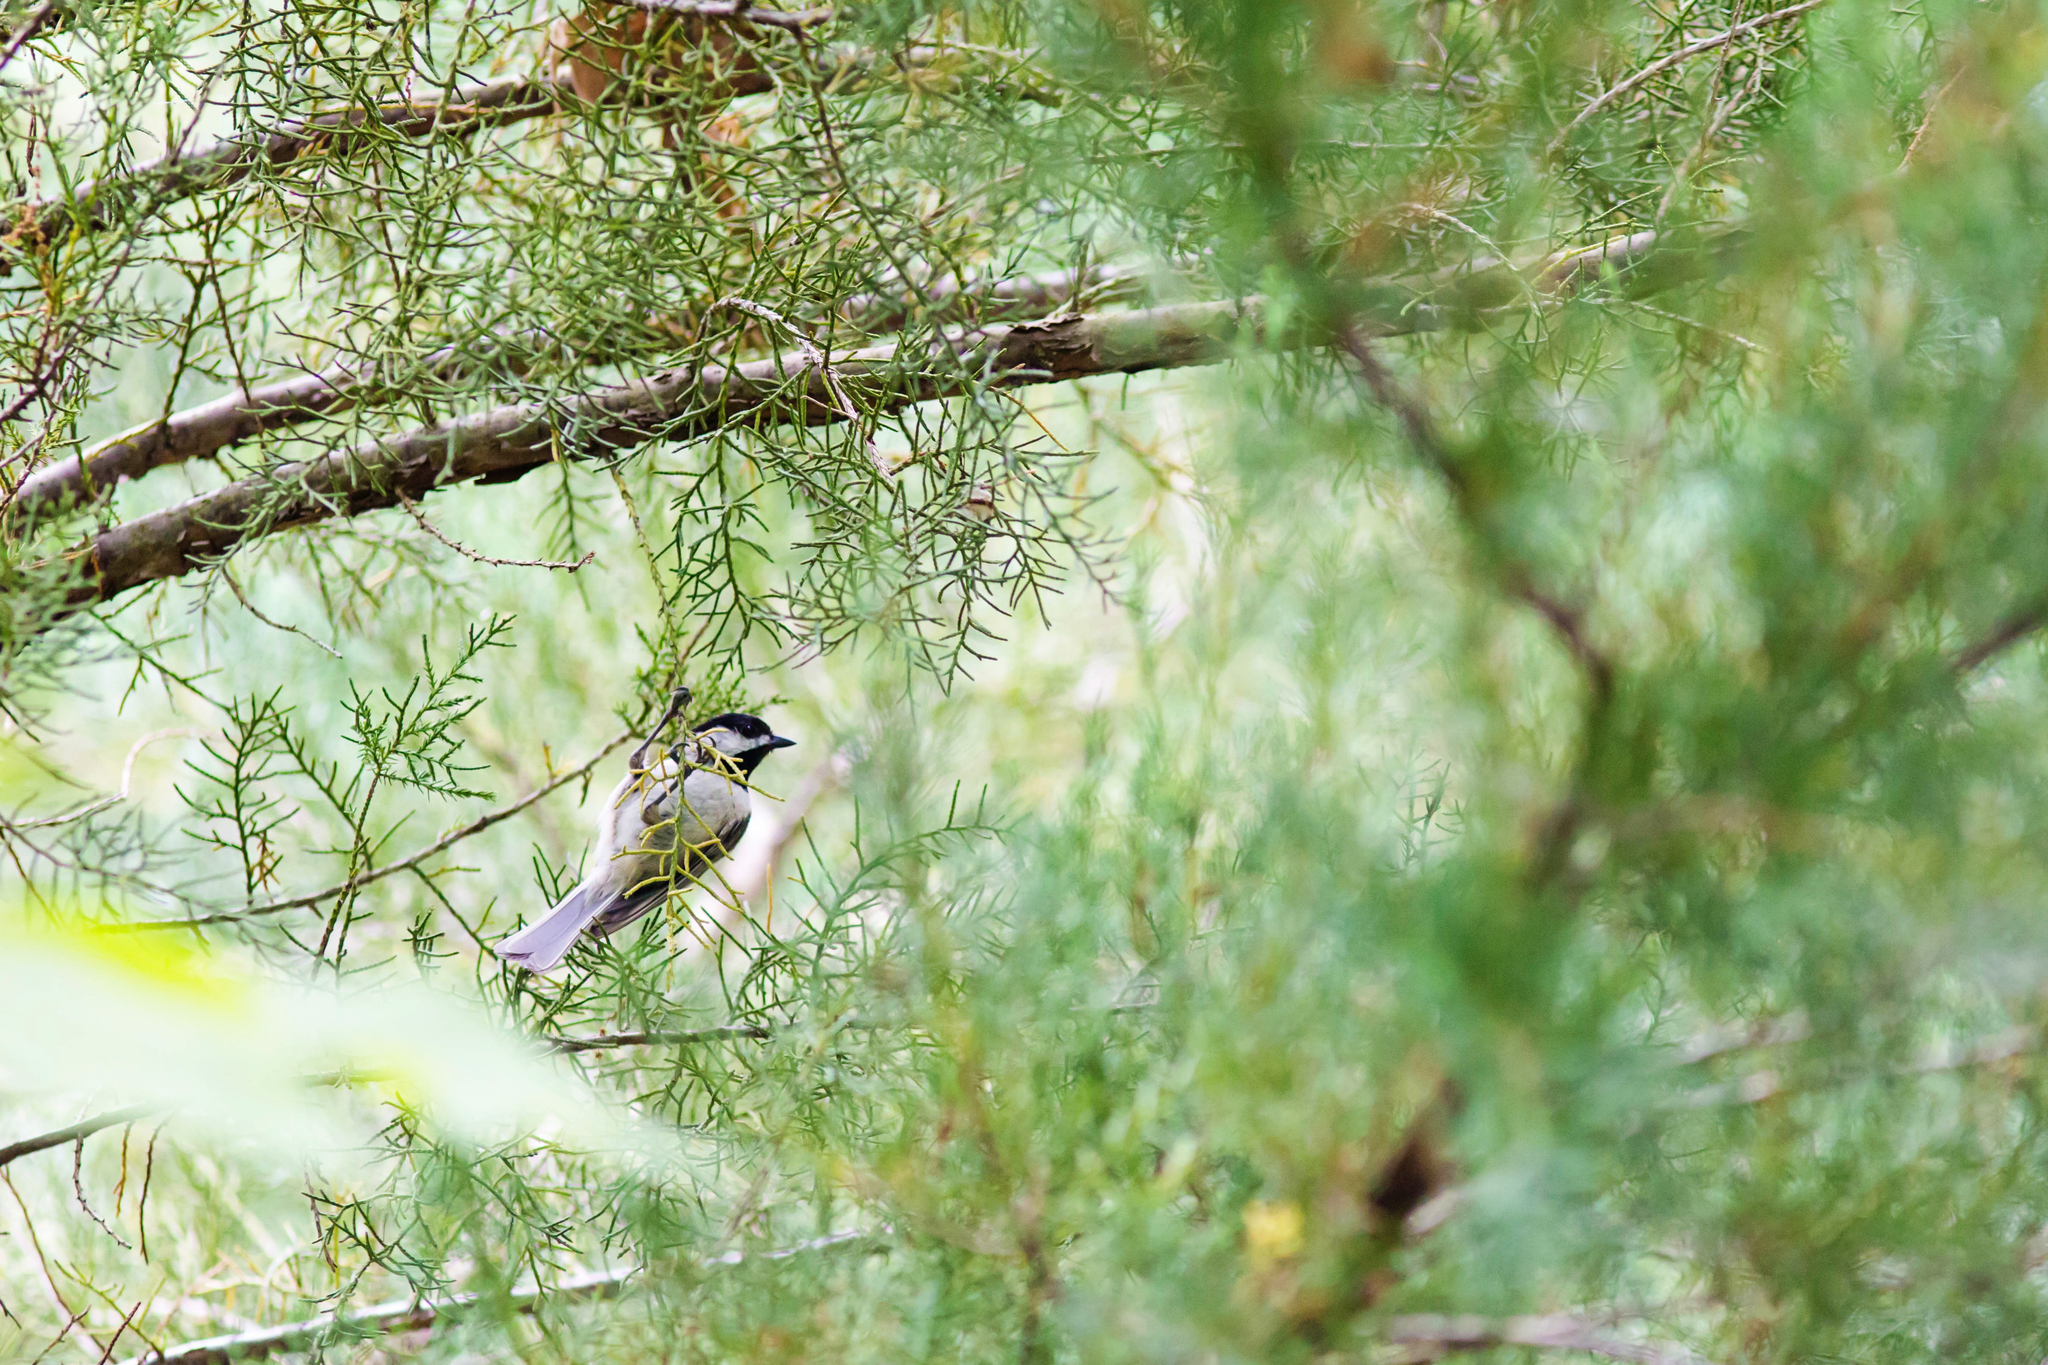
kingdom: Animalia
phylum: Chordata
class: Aves
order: Passeriformes
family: Paridae
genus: Poecile
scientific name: Poecile carolinensis
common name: Carolina chickadee
